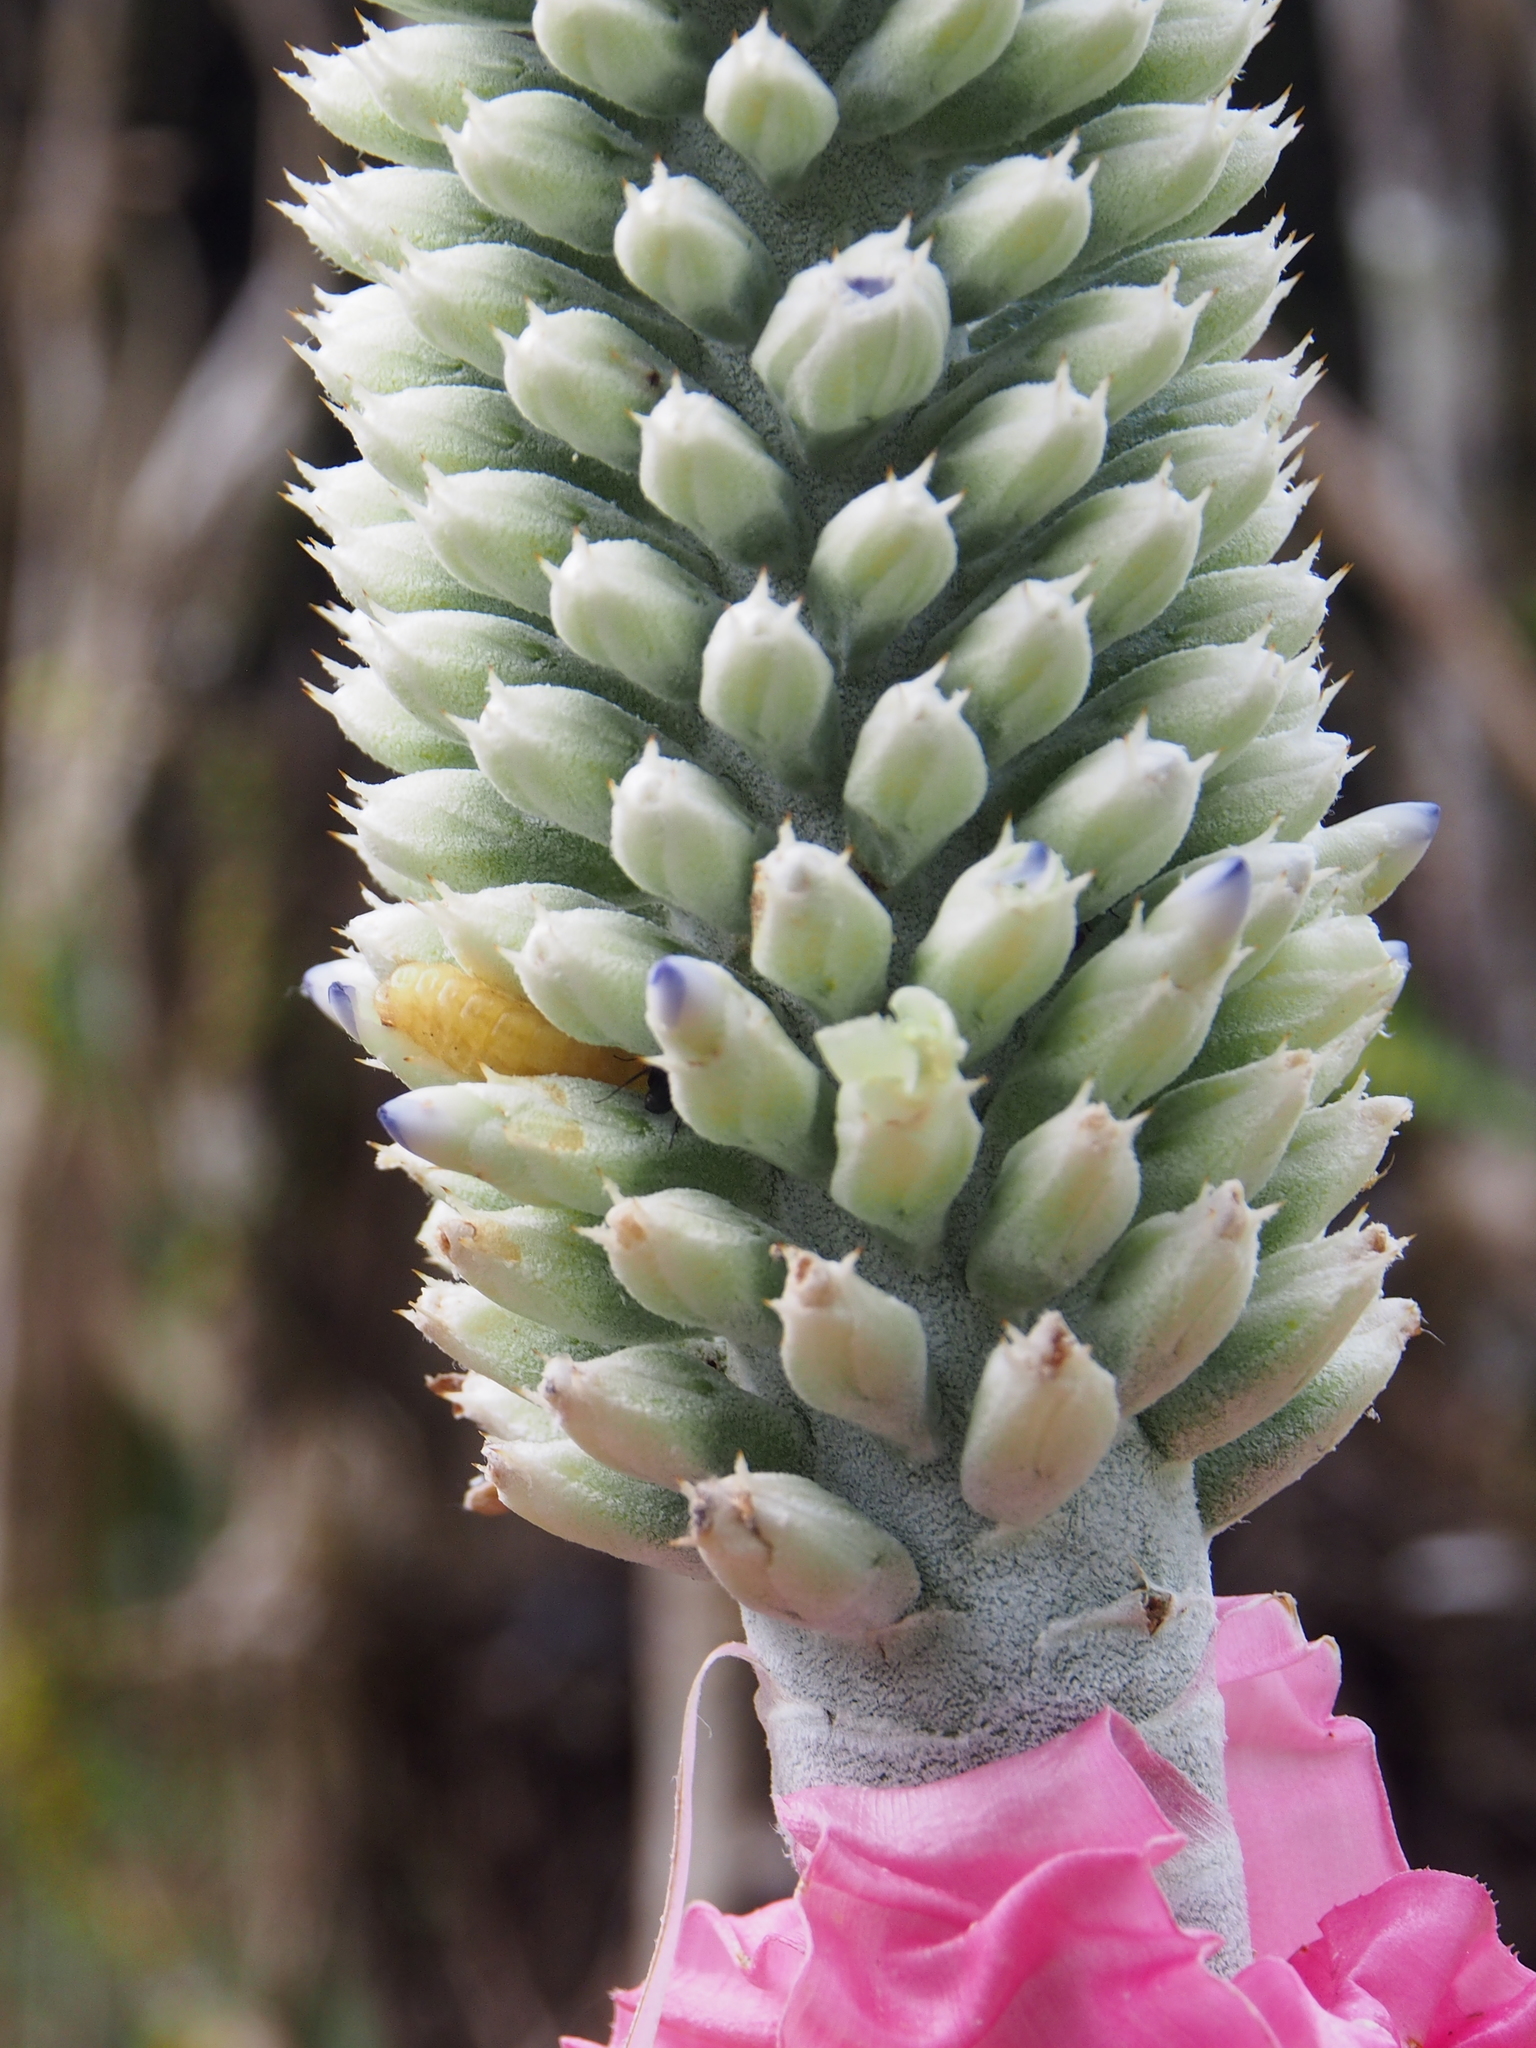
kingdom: Plantae
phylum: Tracheophyta
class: Liliopsida
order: Poales
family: Bromeliaceae
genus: Aechmea
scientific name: Aechmea mariae-reginae
